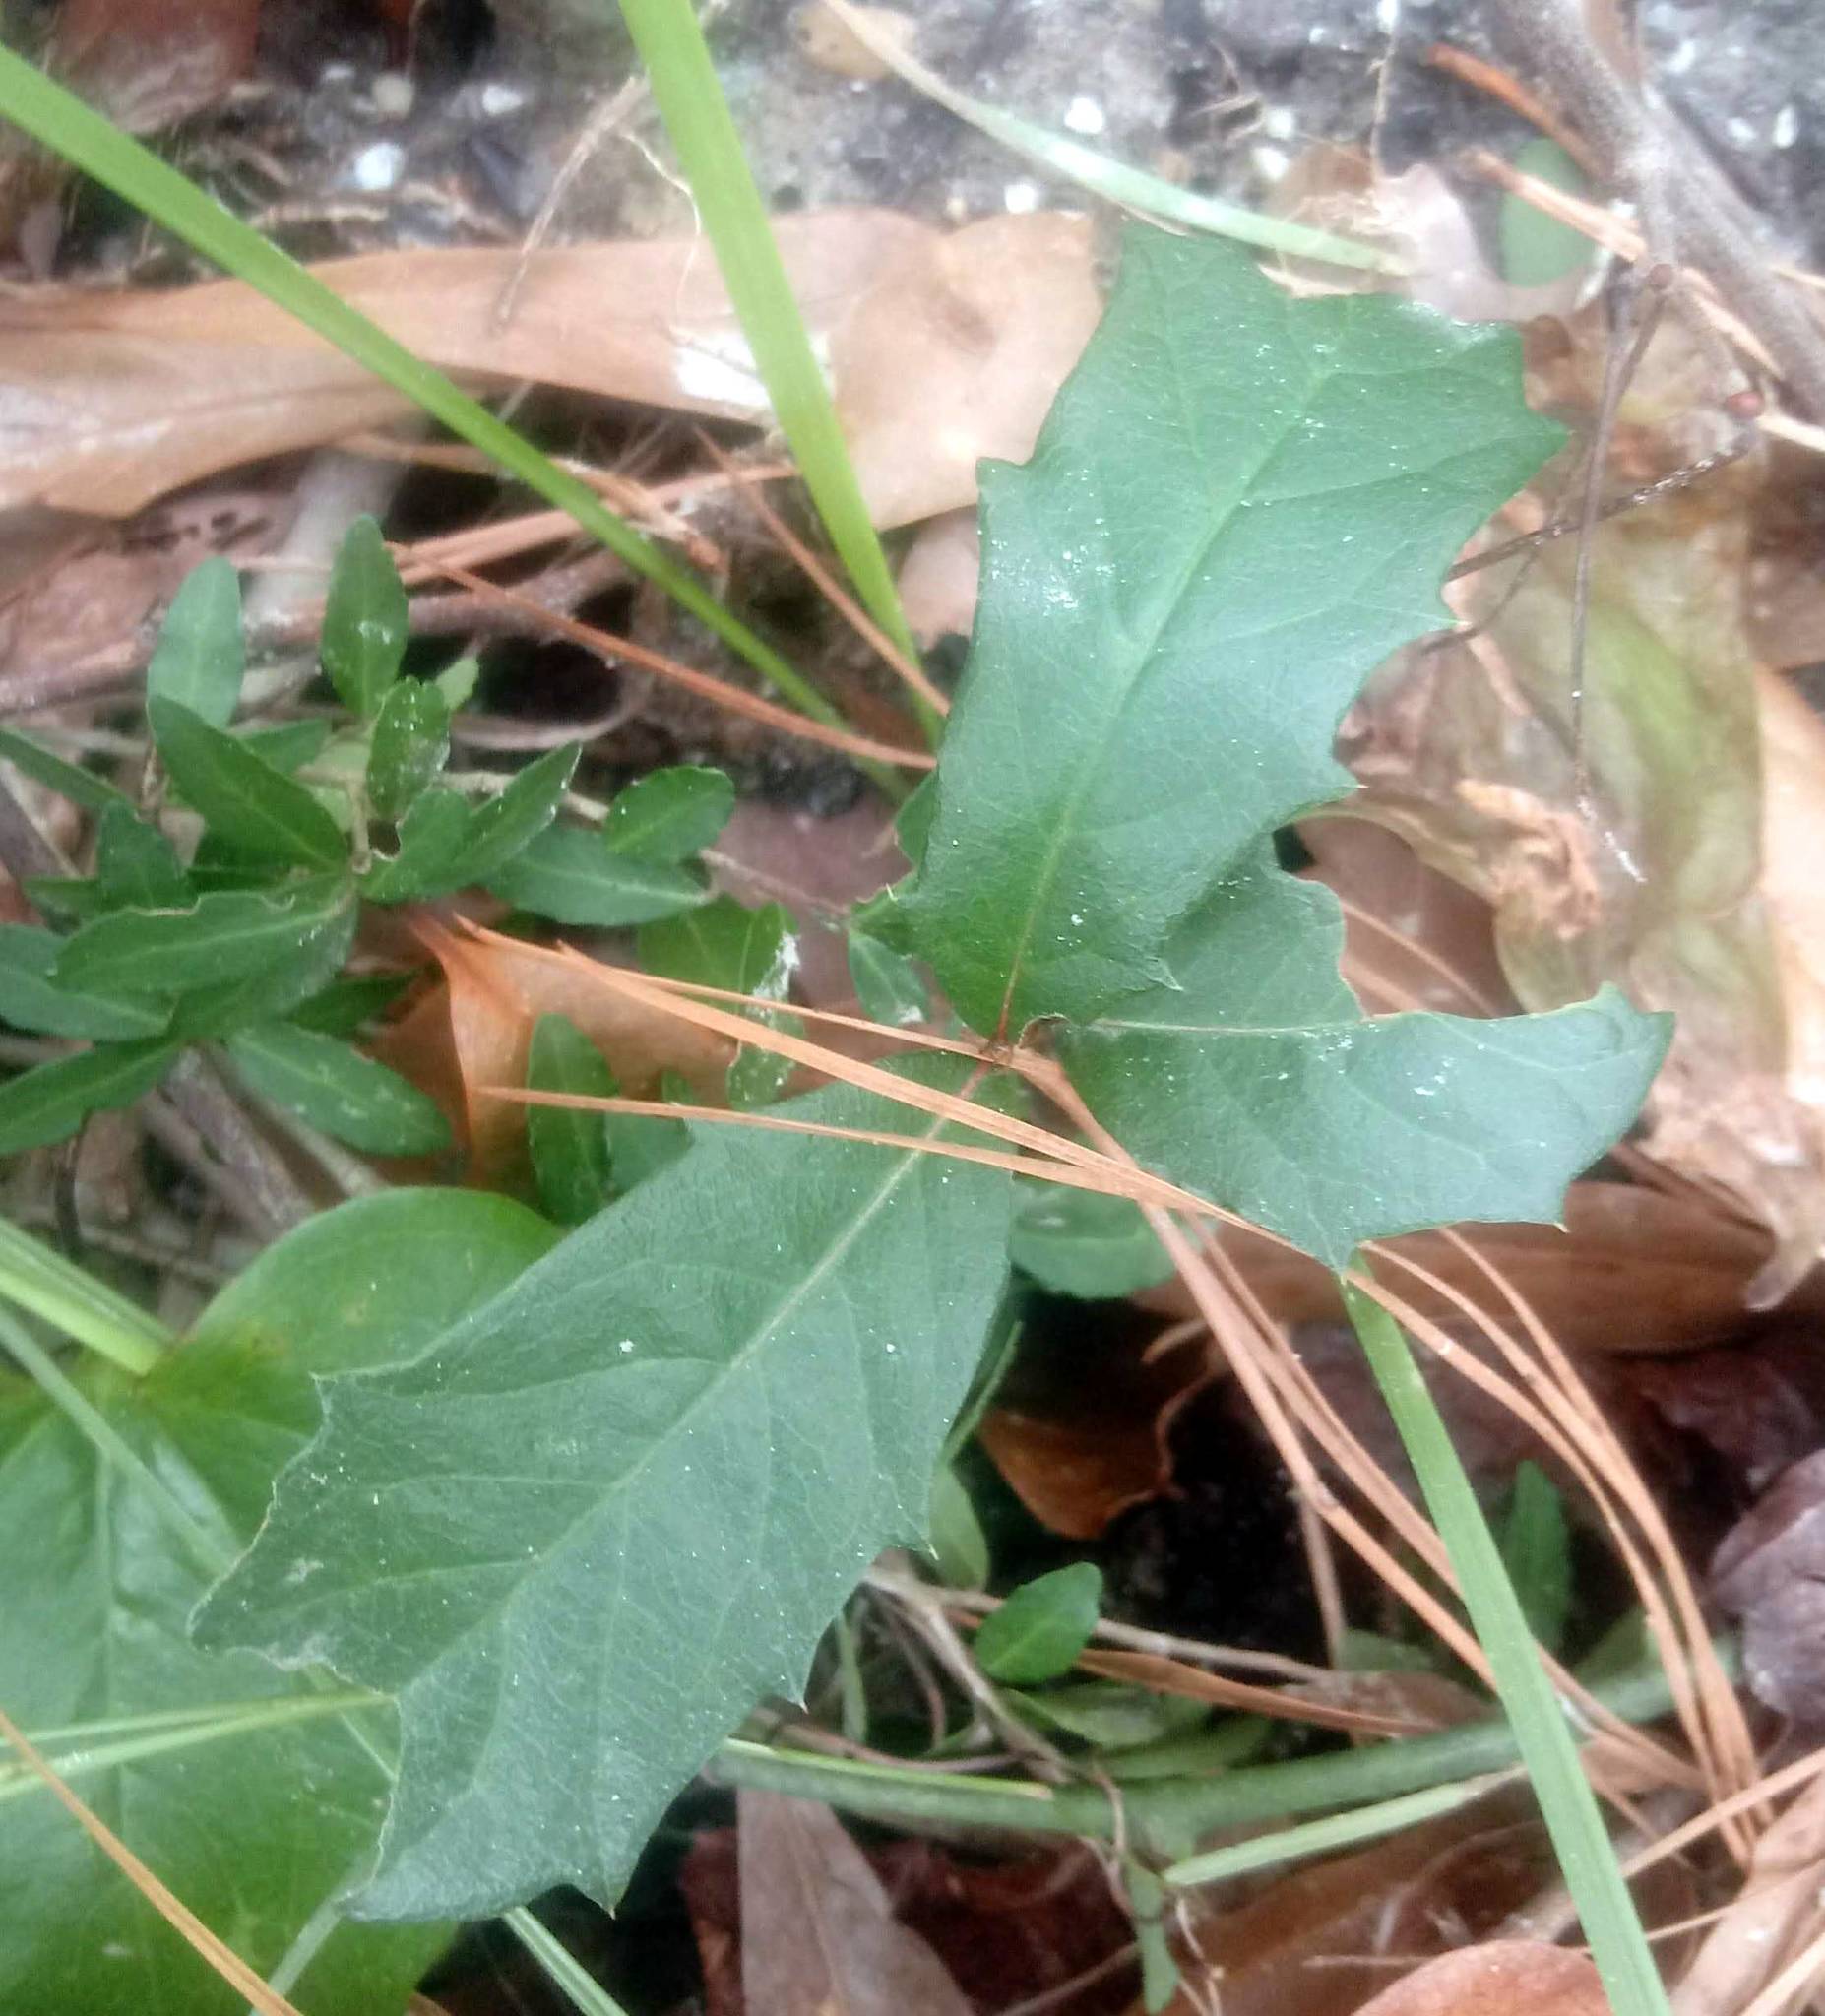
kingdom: Plantae
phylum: Tracheophyta
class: Magnoliopsida
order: Aquifoliales
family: Aquifoliaceae
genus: Ilex
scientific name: Ilex opaca
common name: American holly
